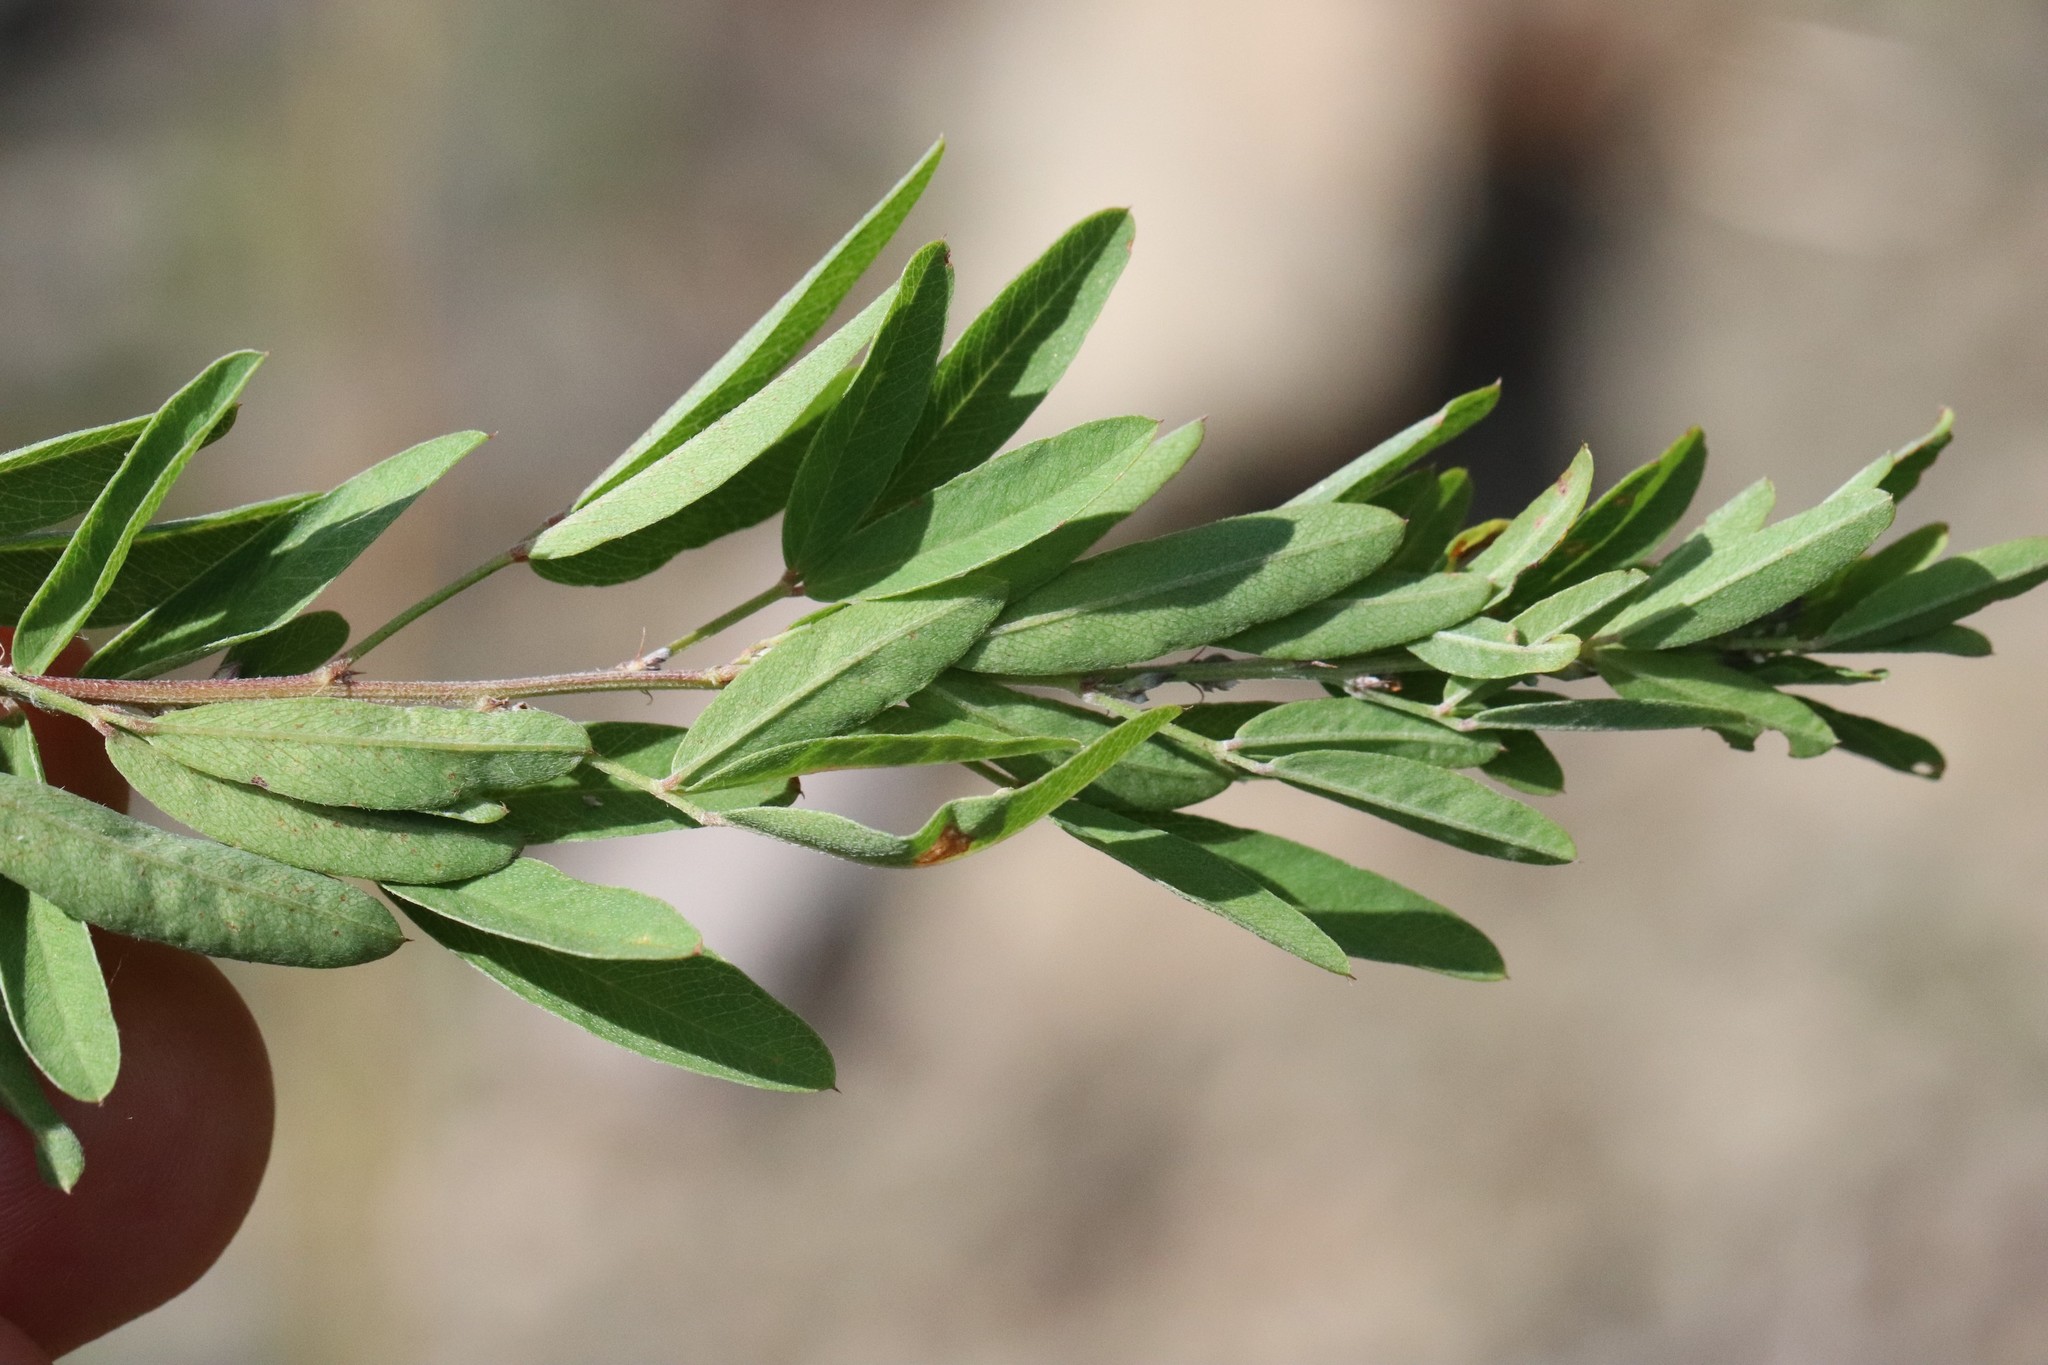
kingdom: Plantae
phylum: Tracheophyta
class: Magnoliopsida
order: Fabales
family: Fabaceae
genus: Lespedeza
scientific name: Lespedeza juncea
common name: Siberian lespedeza
